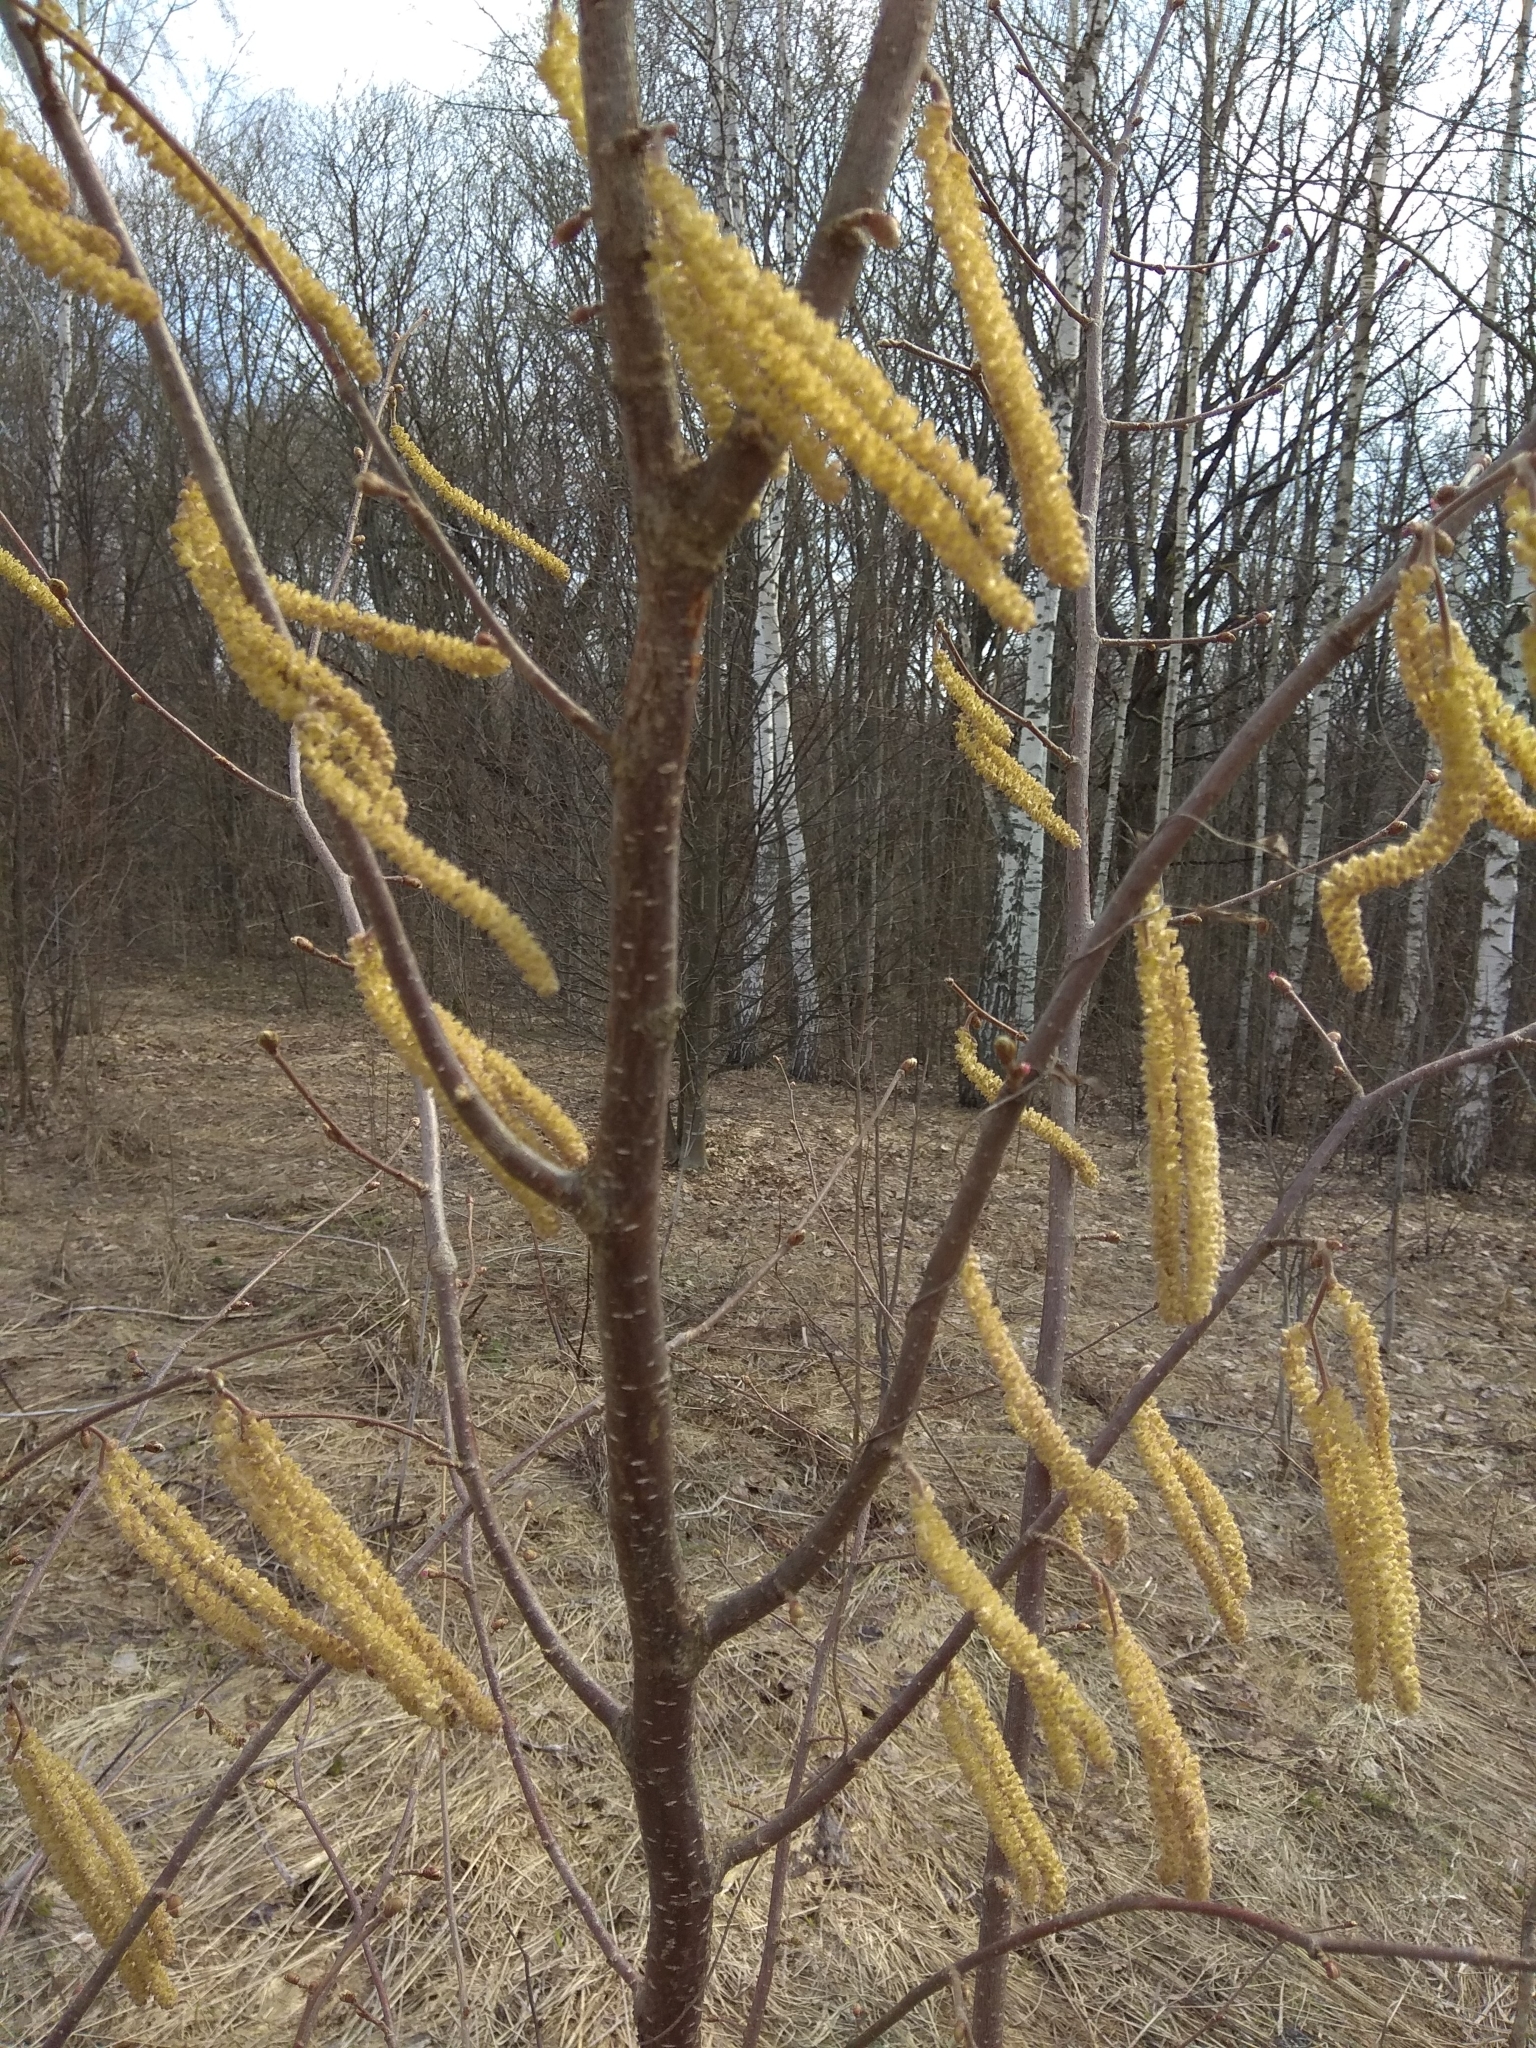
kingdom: Plantae
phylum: Tracheophyta
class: Magnoliopsida
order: Fagales
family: Betulaceae
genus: Corylus
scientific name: Corylus avellana
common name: European hazel
